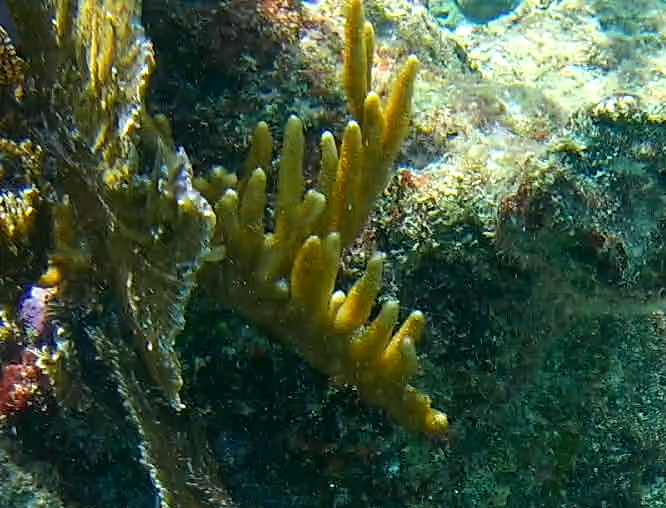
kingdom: Animalia
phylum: Cnidaria
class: Hydrozoa
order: Anthoathecata
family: Milleporidae
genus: Millepora
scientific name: Millepora alcicornis
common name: Branching fire coral
